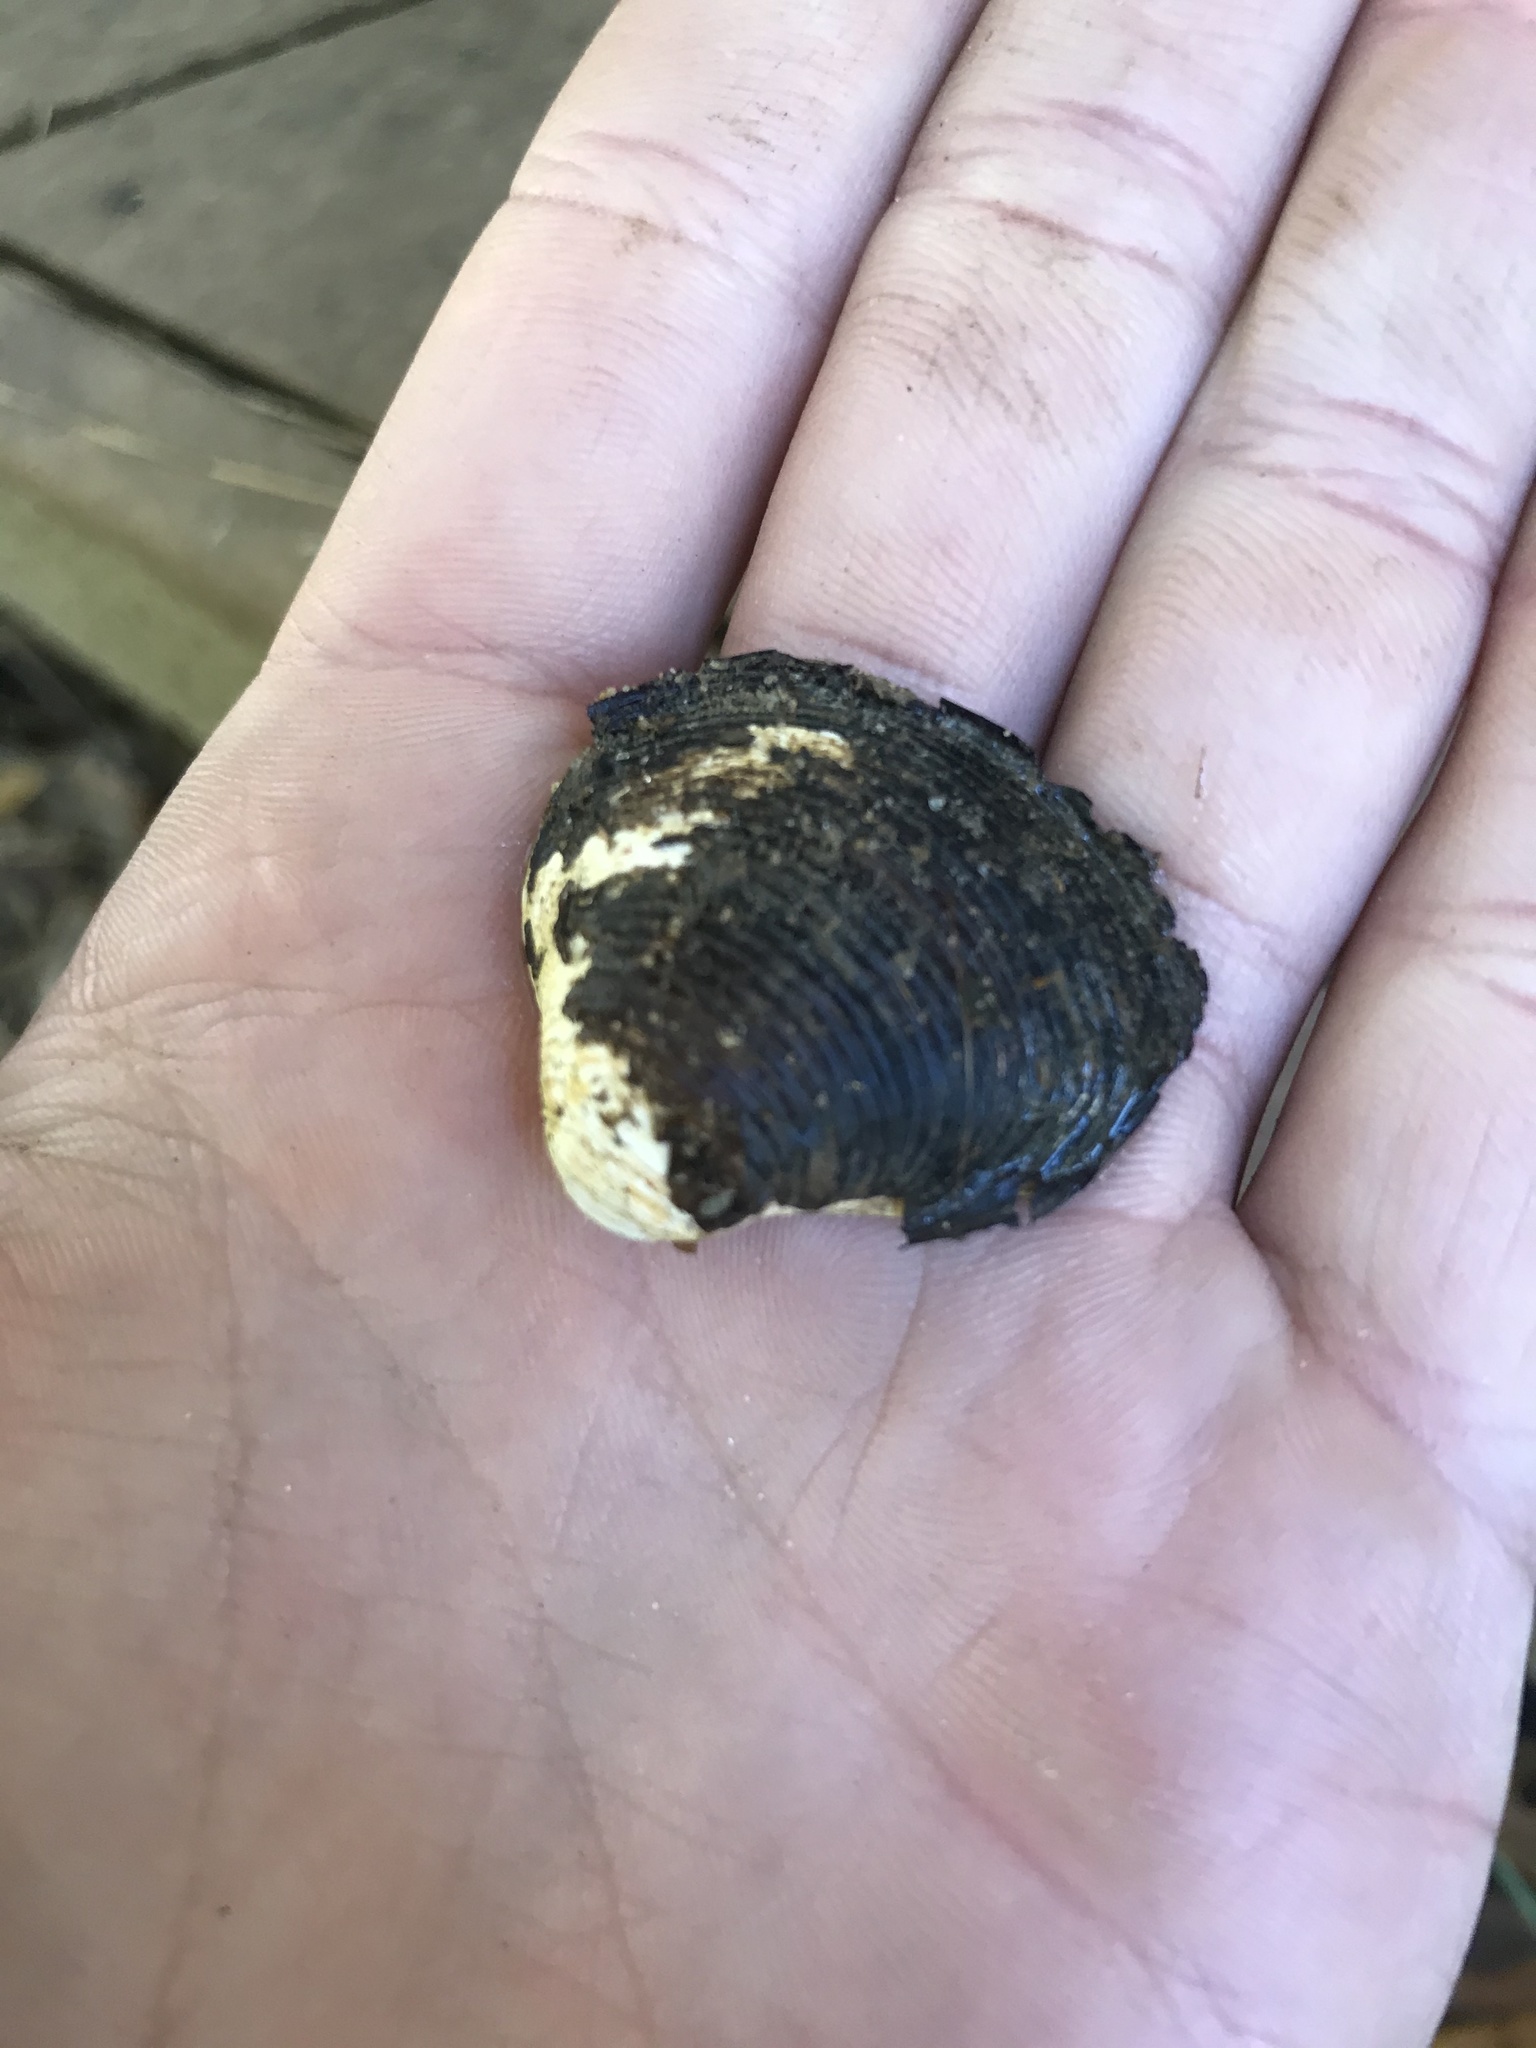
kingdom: Animalia
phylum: Mollusca
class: Bivalvia
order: Venerida
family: Cyrenidae
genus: Corbicula
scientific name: Corbicula fluminea
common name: Asian clam
